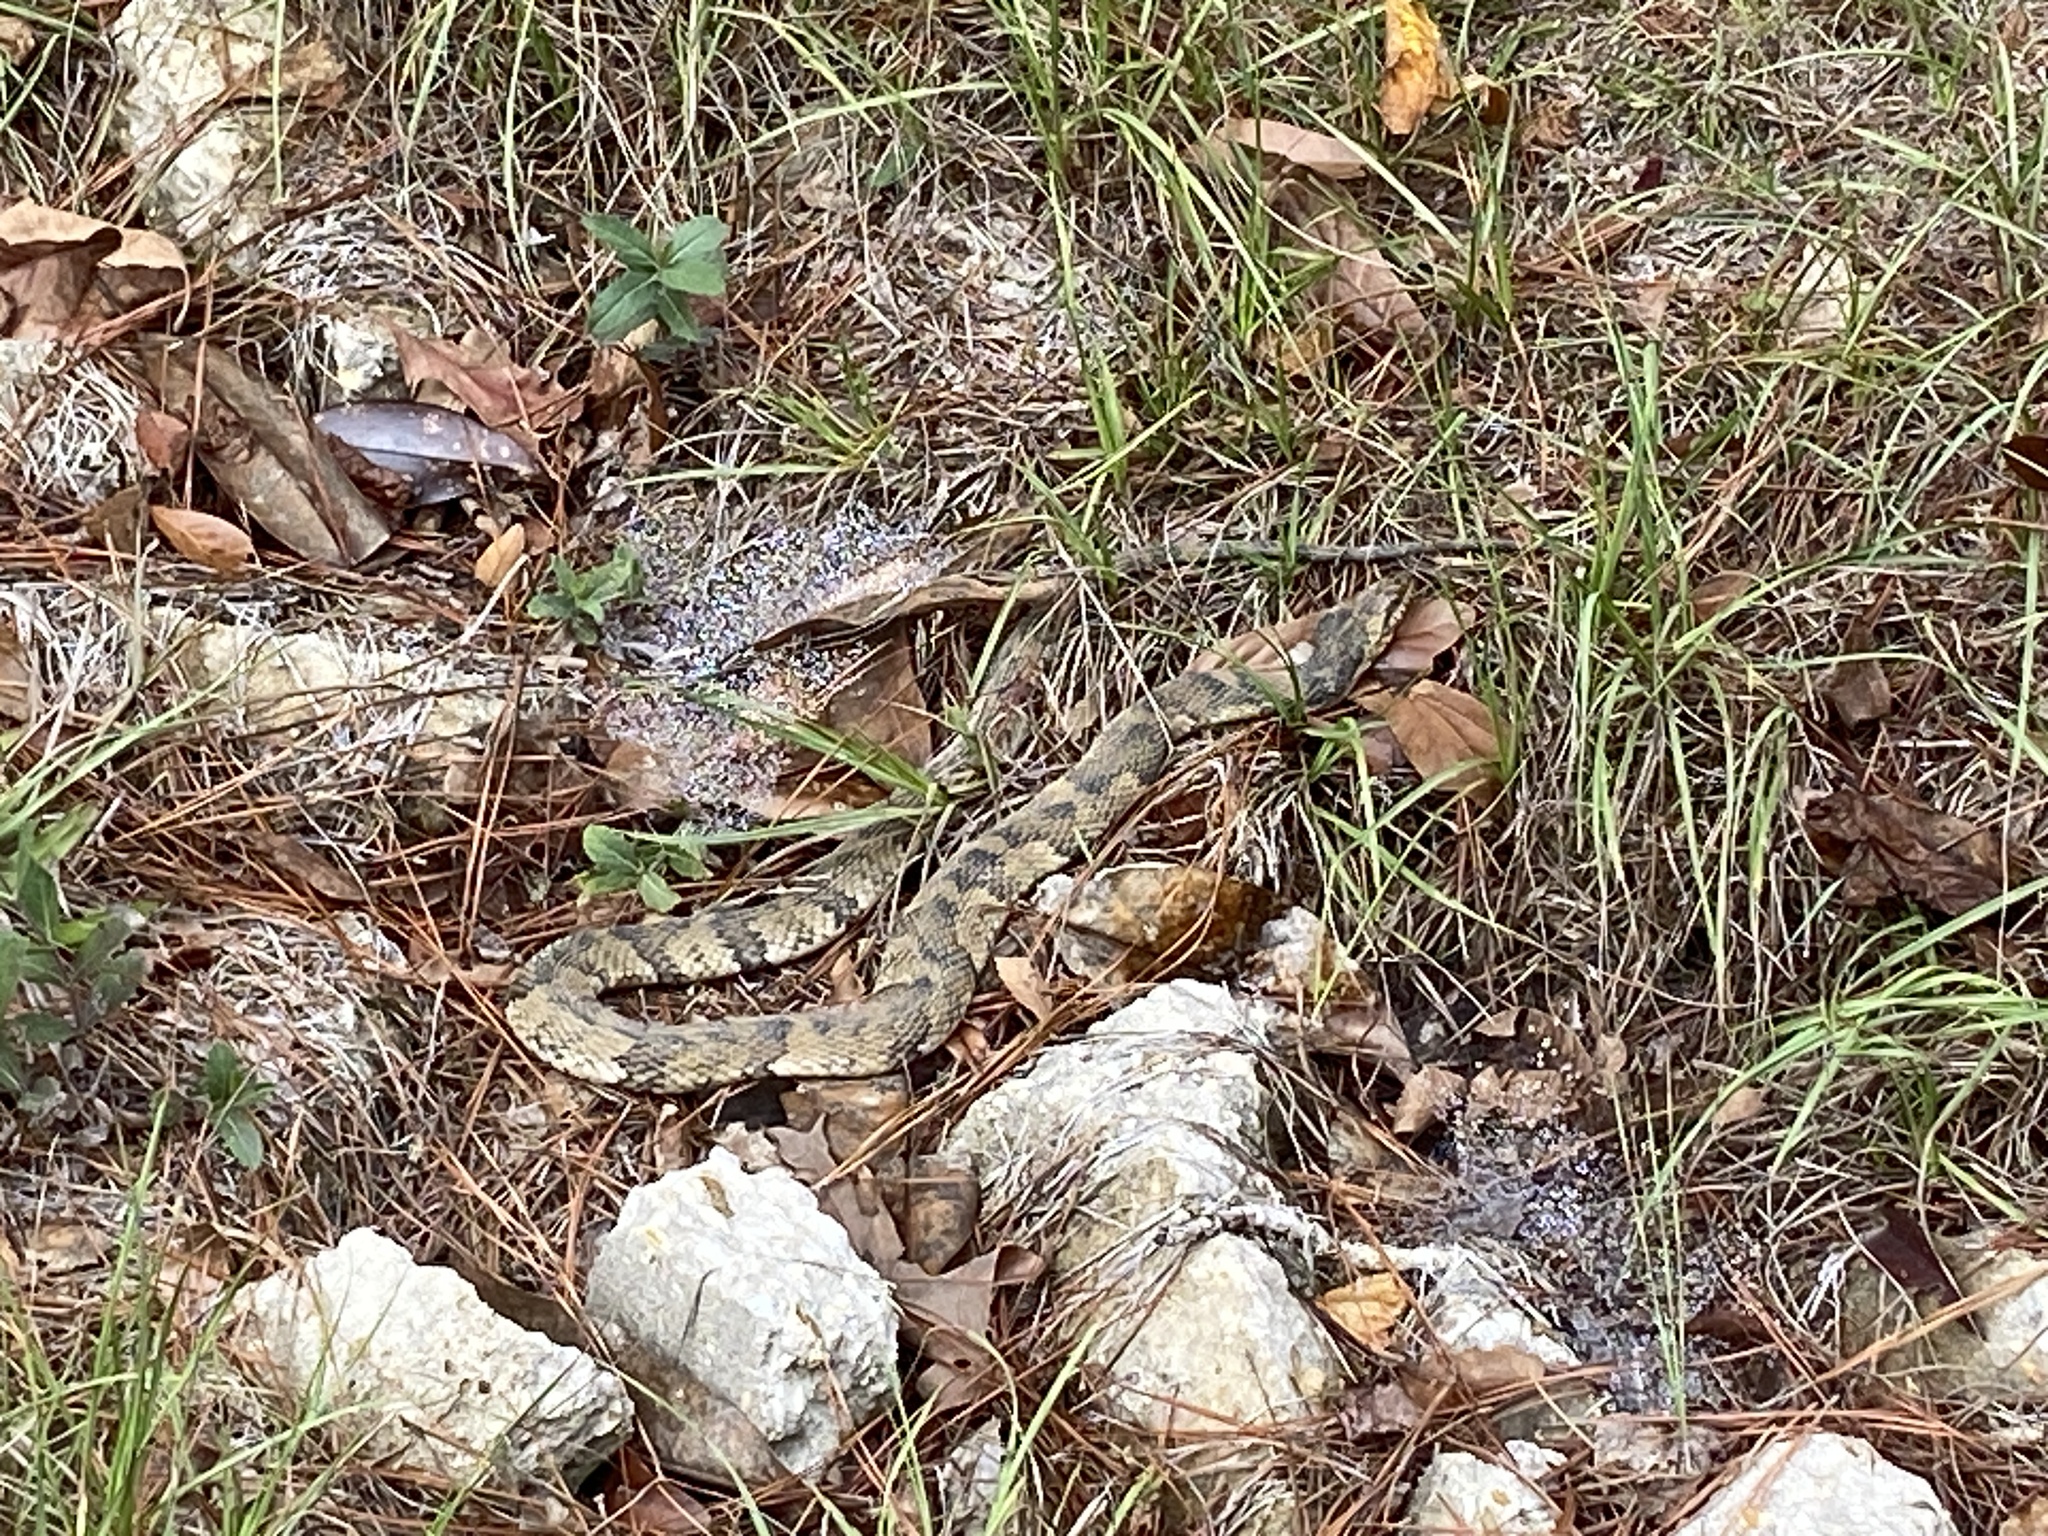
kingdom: Animalia
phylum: Chordata
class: Squamata
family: Colubridae
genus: Nerodia
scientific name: Nerodia fasciata
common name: Southern water snake
